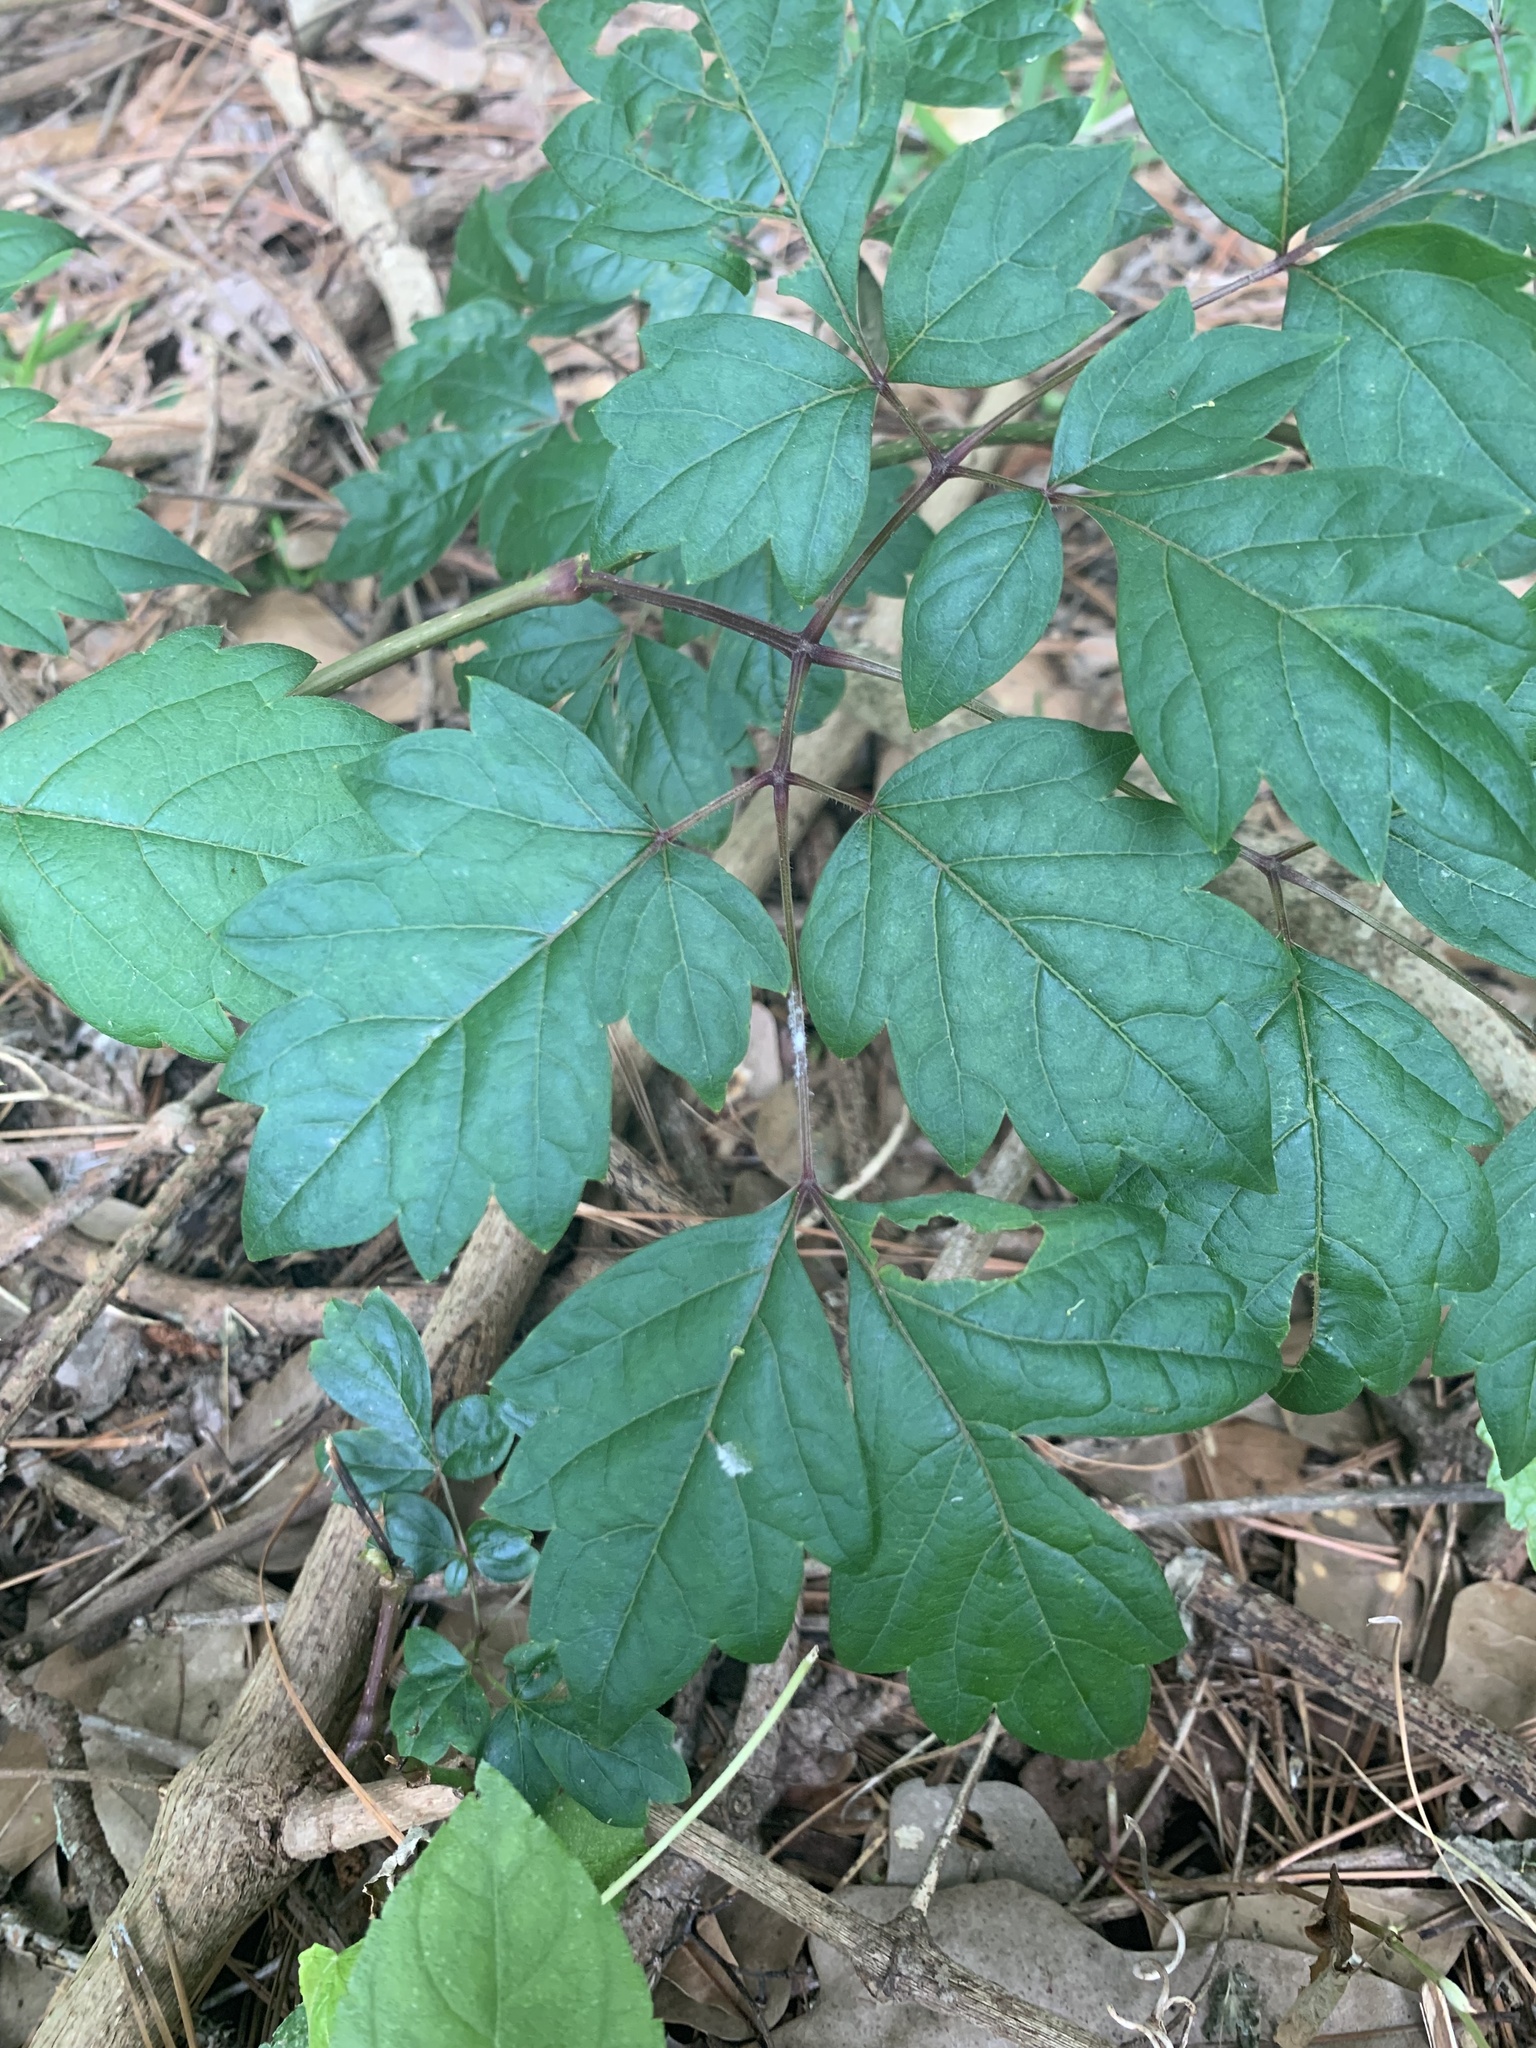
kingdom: Plantae
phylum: Tracheophyta
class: Magnoliopsida
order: Vitales
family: Vitaceae
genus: Nekemias
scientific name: Nekemias arborea
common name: Peppervine
